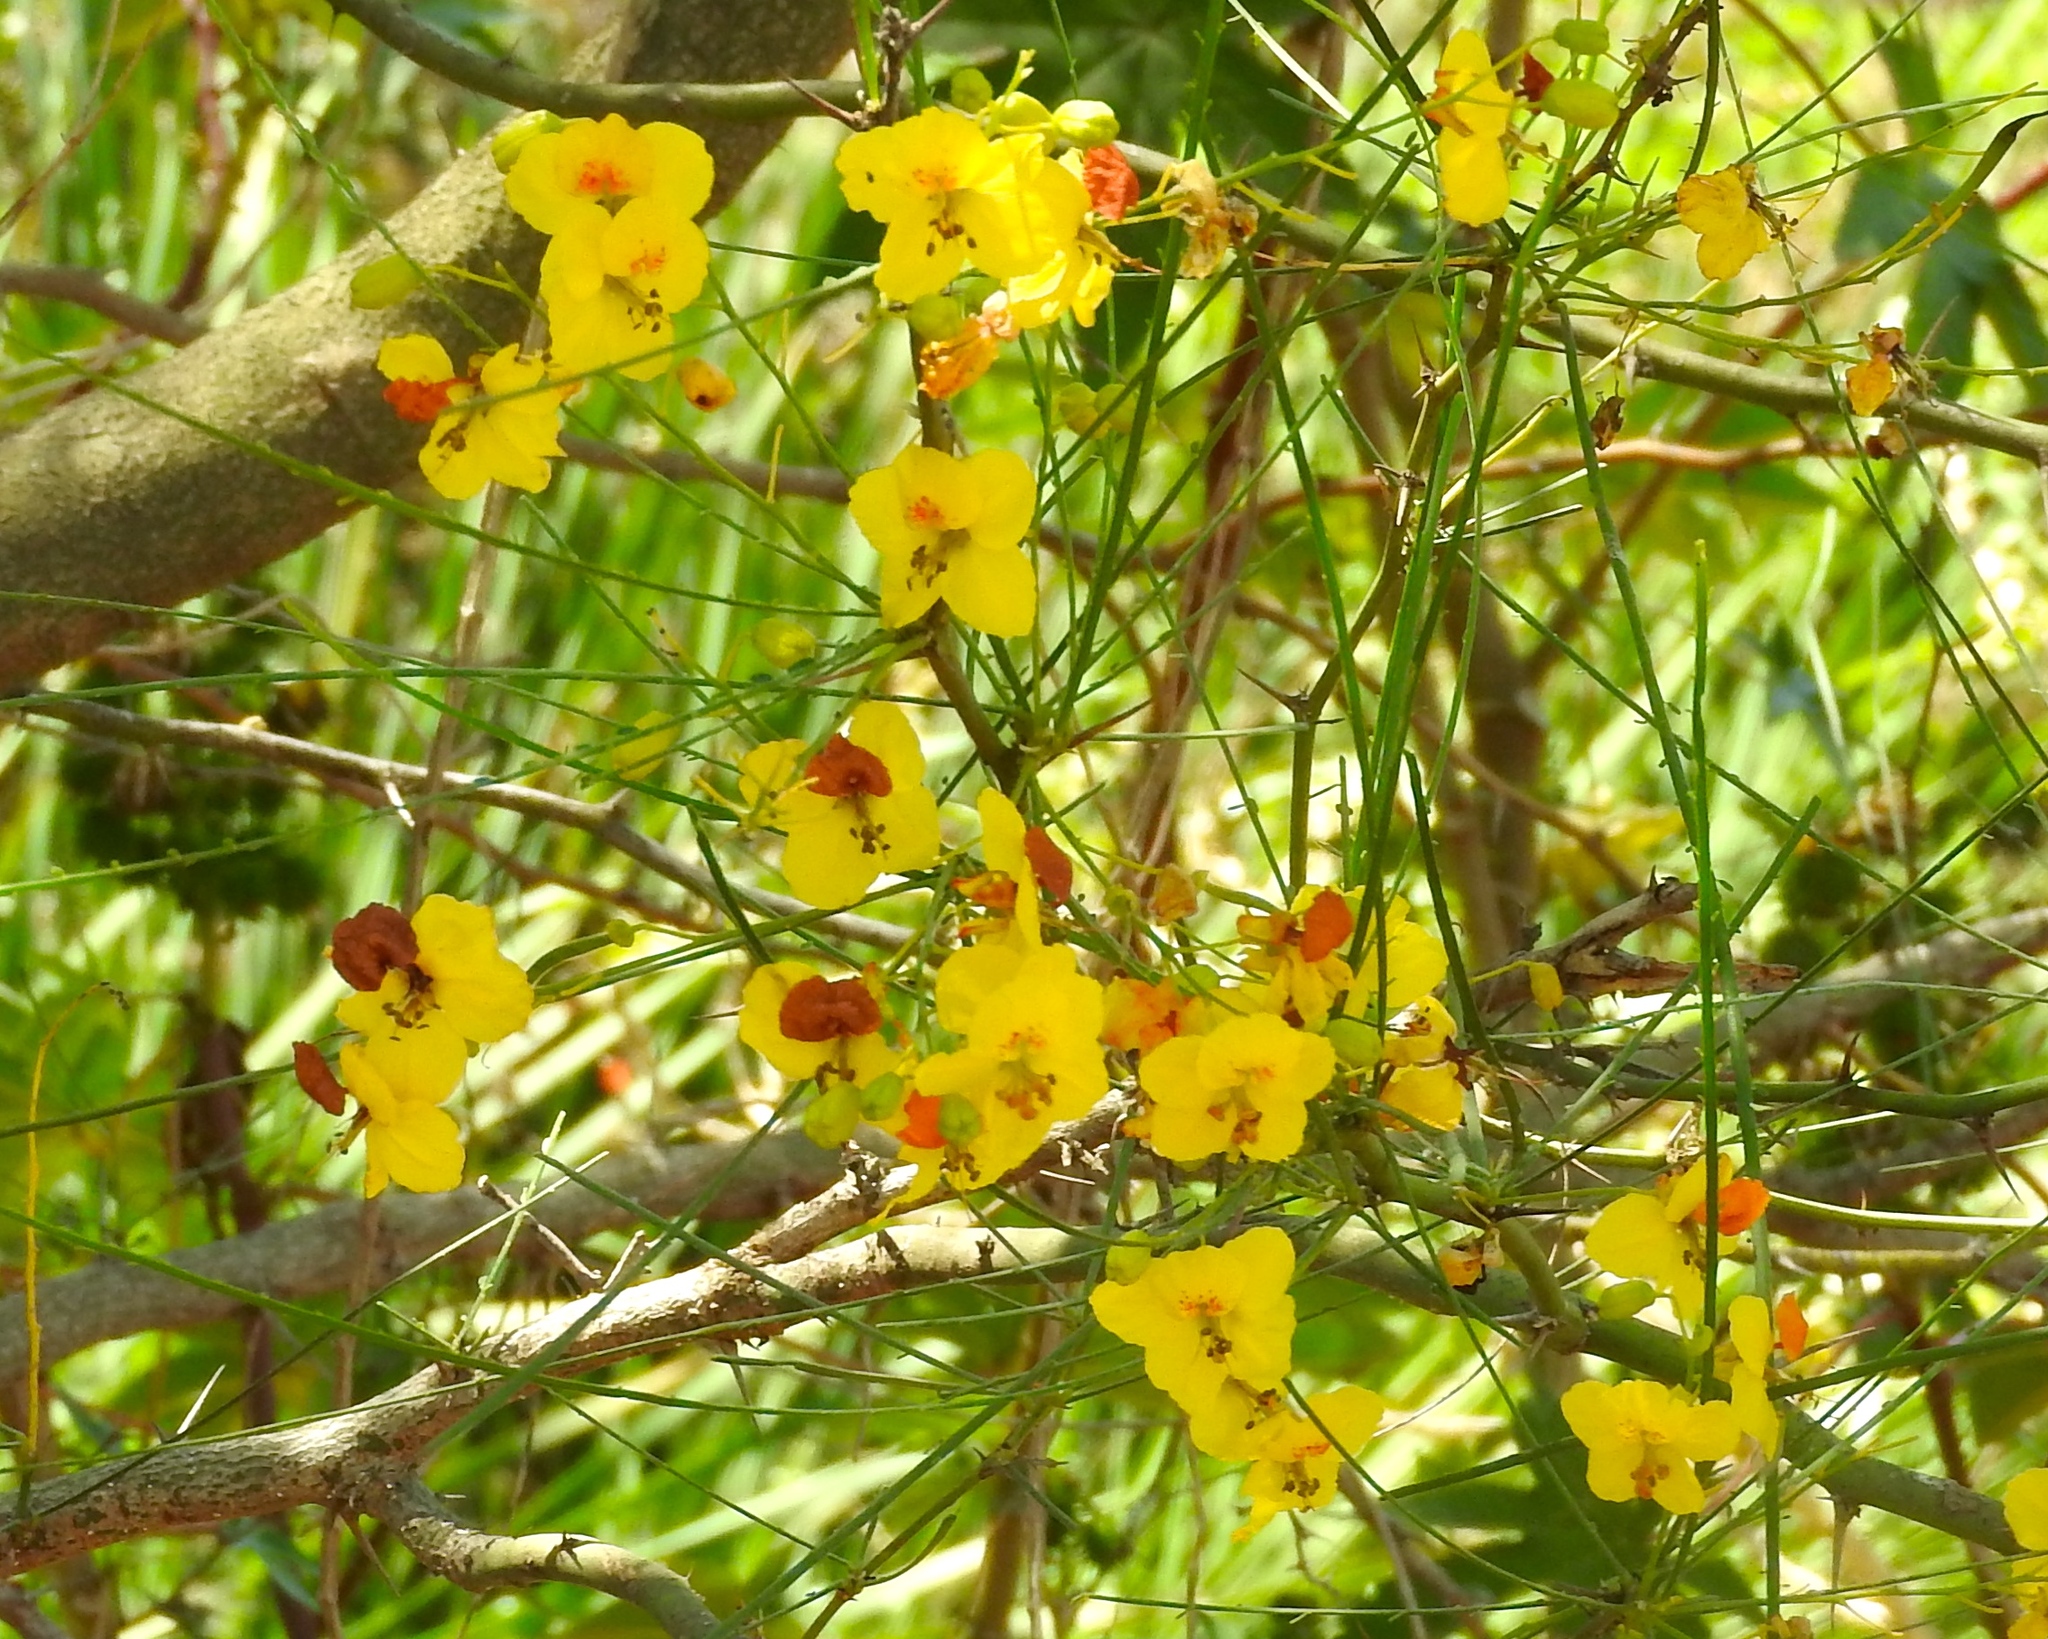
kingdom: Plantae
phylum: Tracheophyta
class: Magnoliopsida
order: Fabales
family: Fabaceae
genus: Parkinsonia
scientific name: Parkinsonia aculeata
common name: Jerusalem thorn
